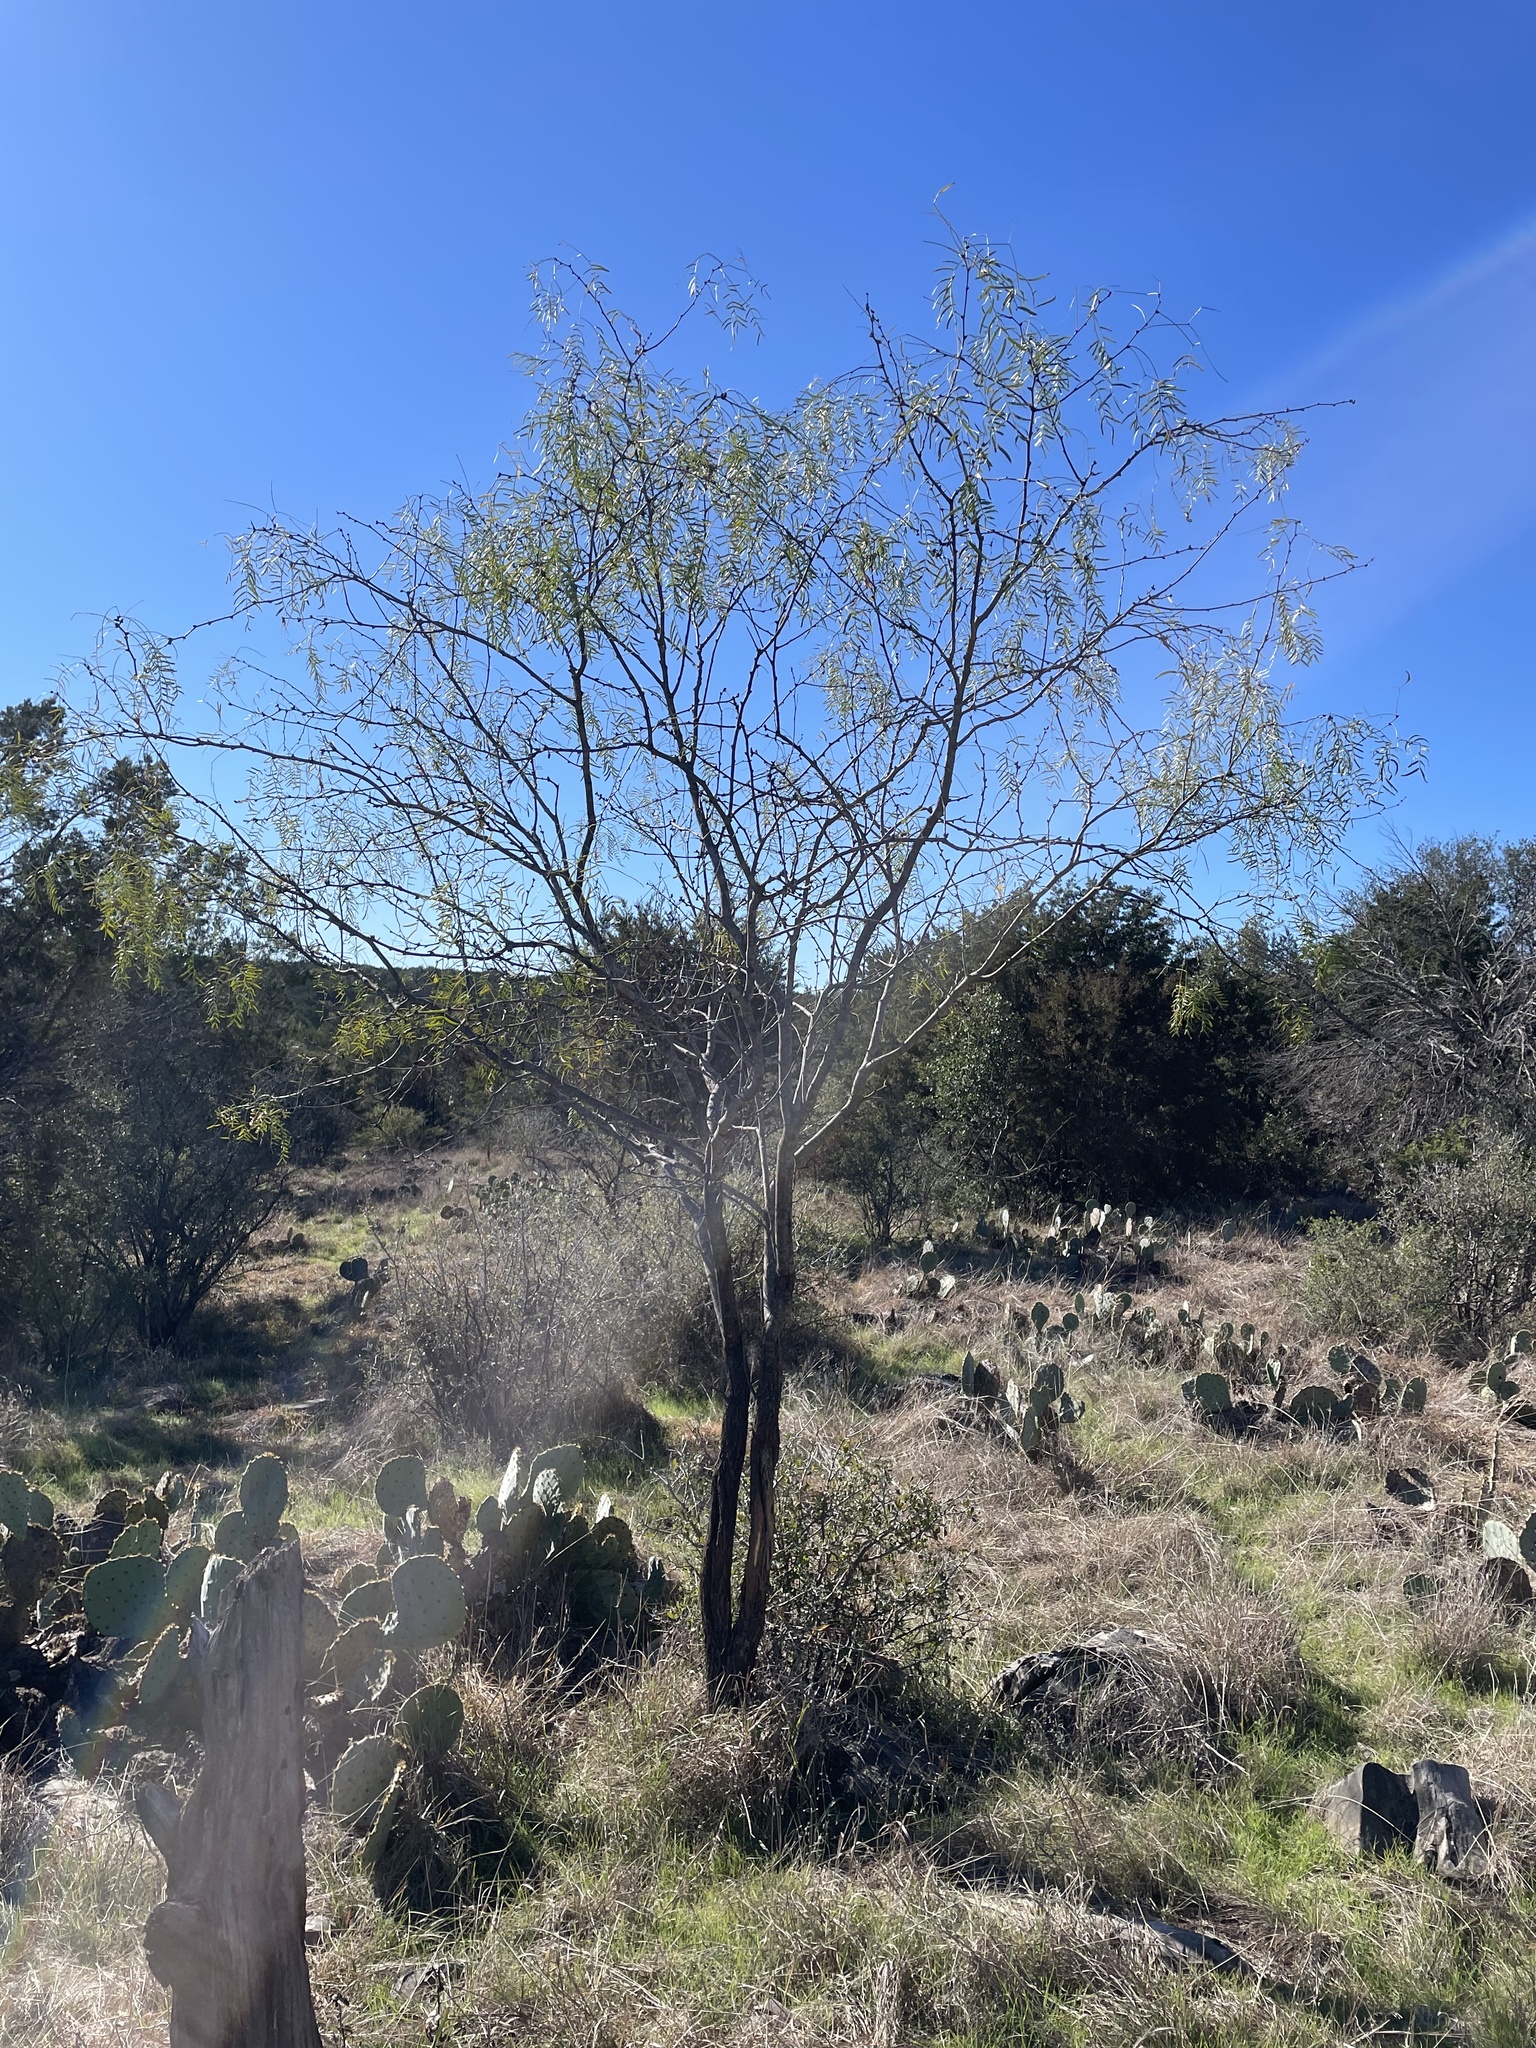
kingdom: Plantae
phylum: Tracheophyta
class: Magnoliopsida
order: Fabales
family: Fabaceae
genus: Prosopis
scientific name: Prosopis glandulosa
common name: Honey mesquite
